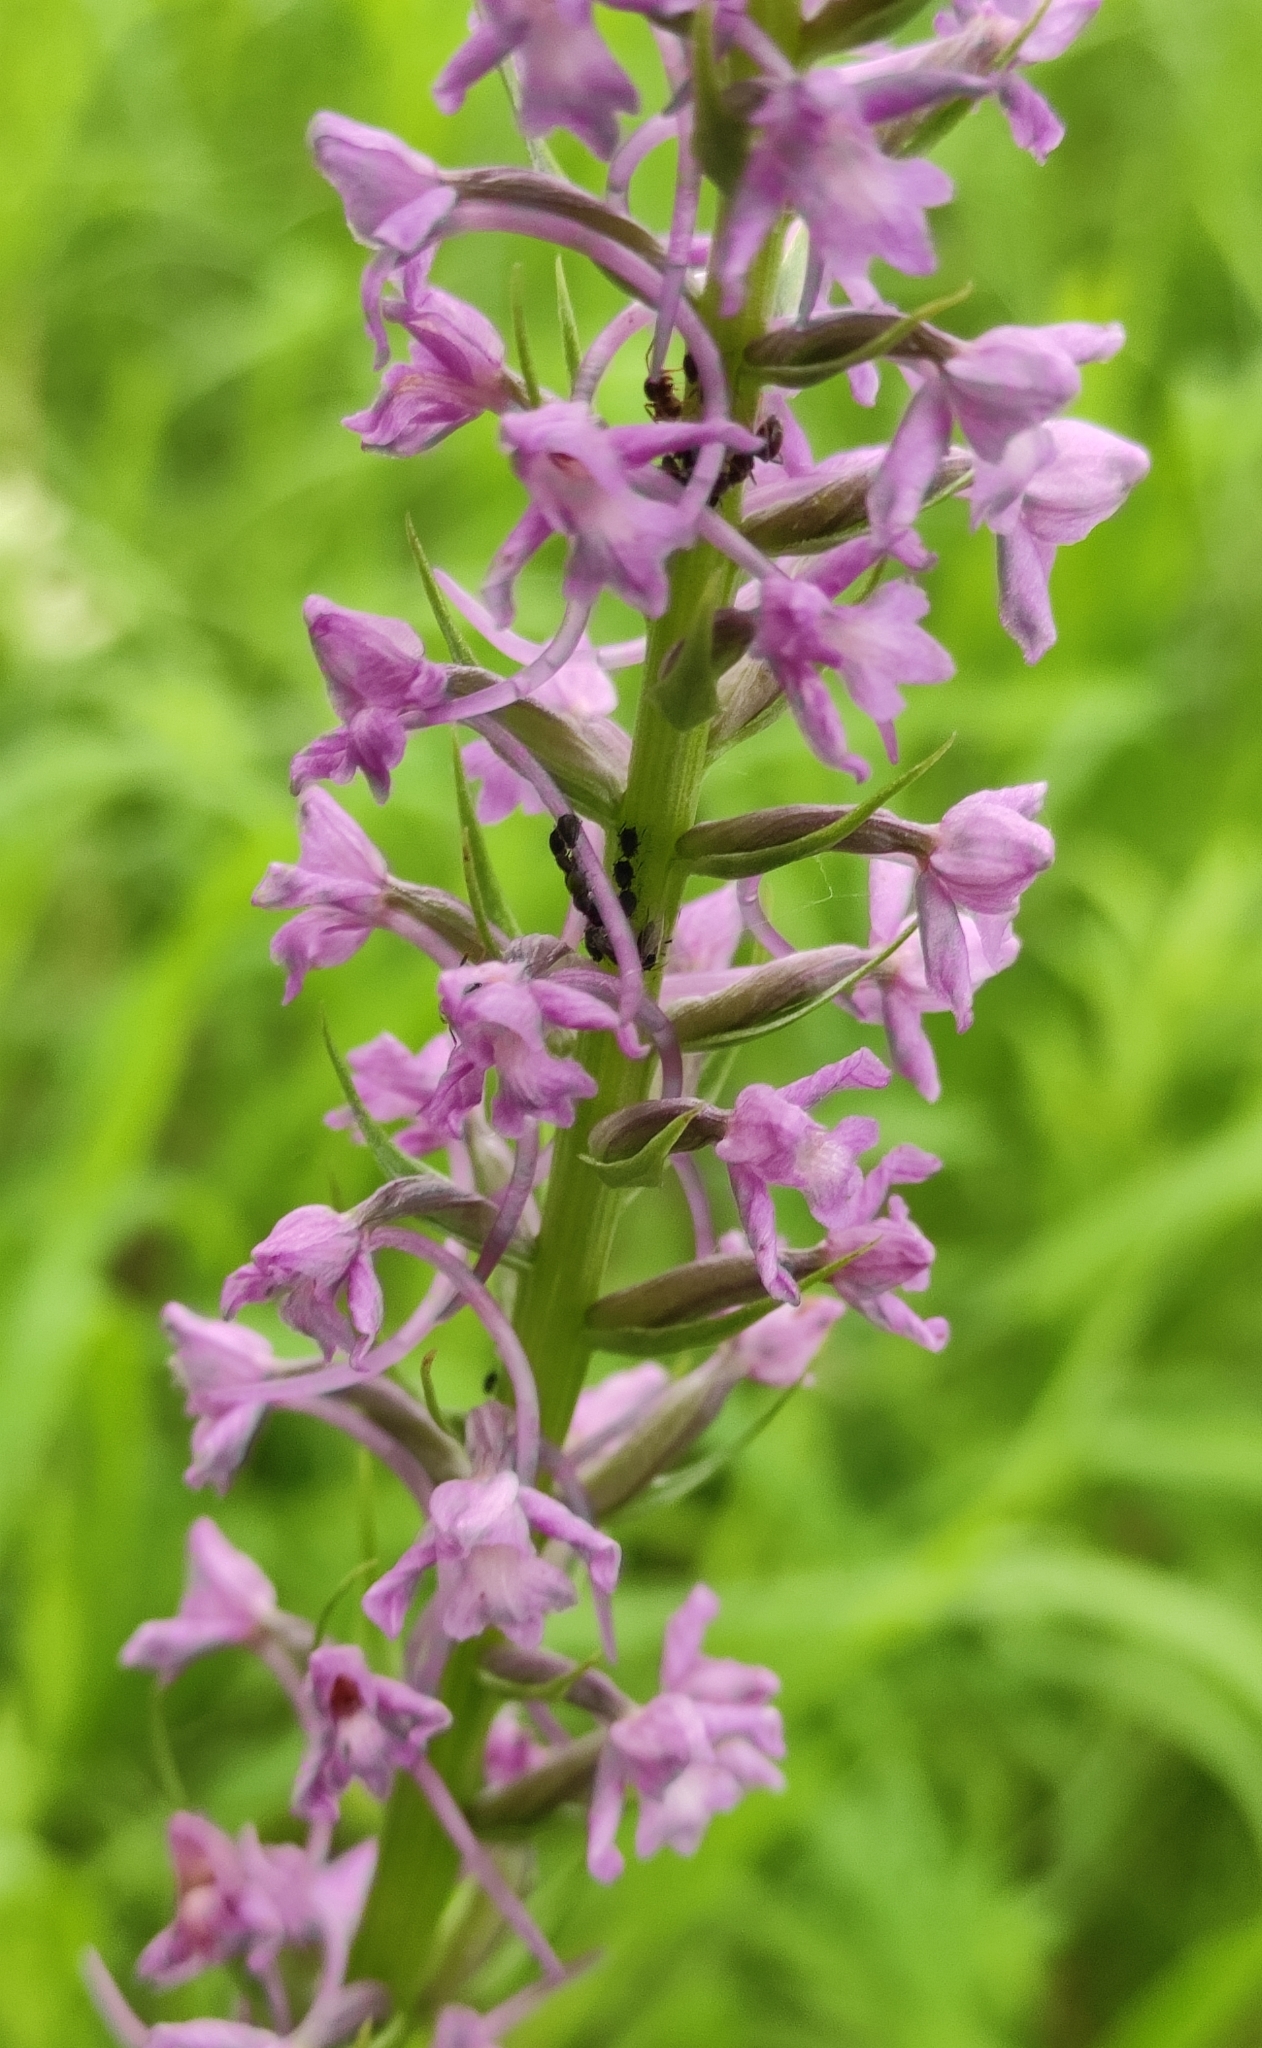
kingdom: Plantae
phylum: Tracheophyta
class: Liliopsida
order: Asparagales
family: Orchidaceae
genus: Gymnadenia
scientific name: Gymnadenia conopsea
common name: Fragrant orchid
